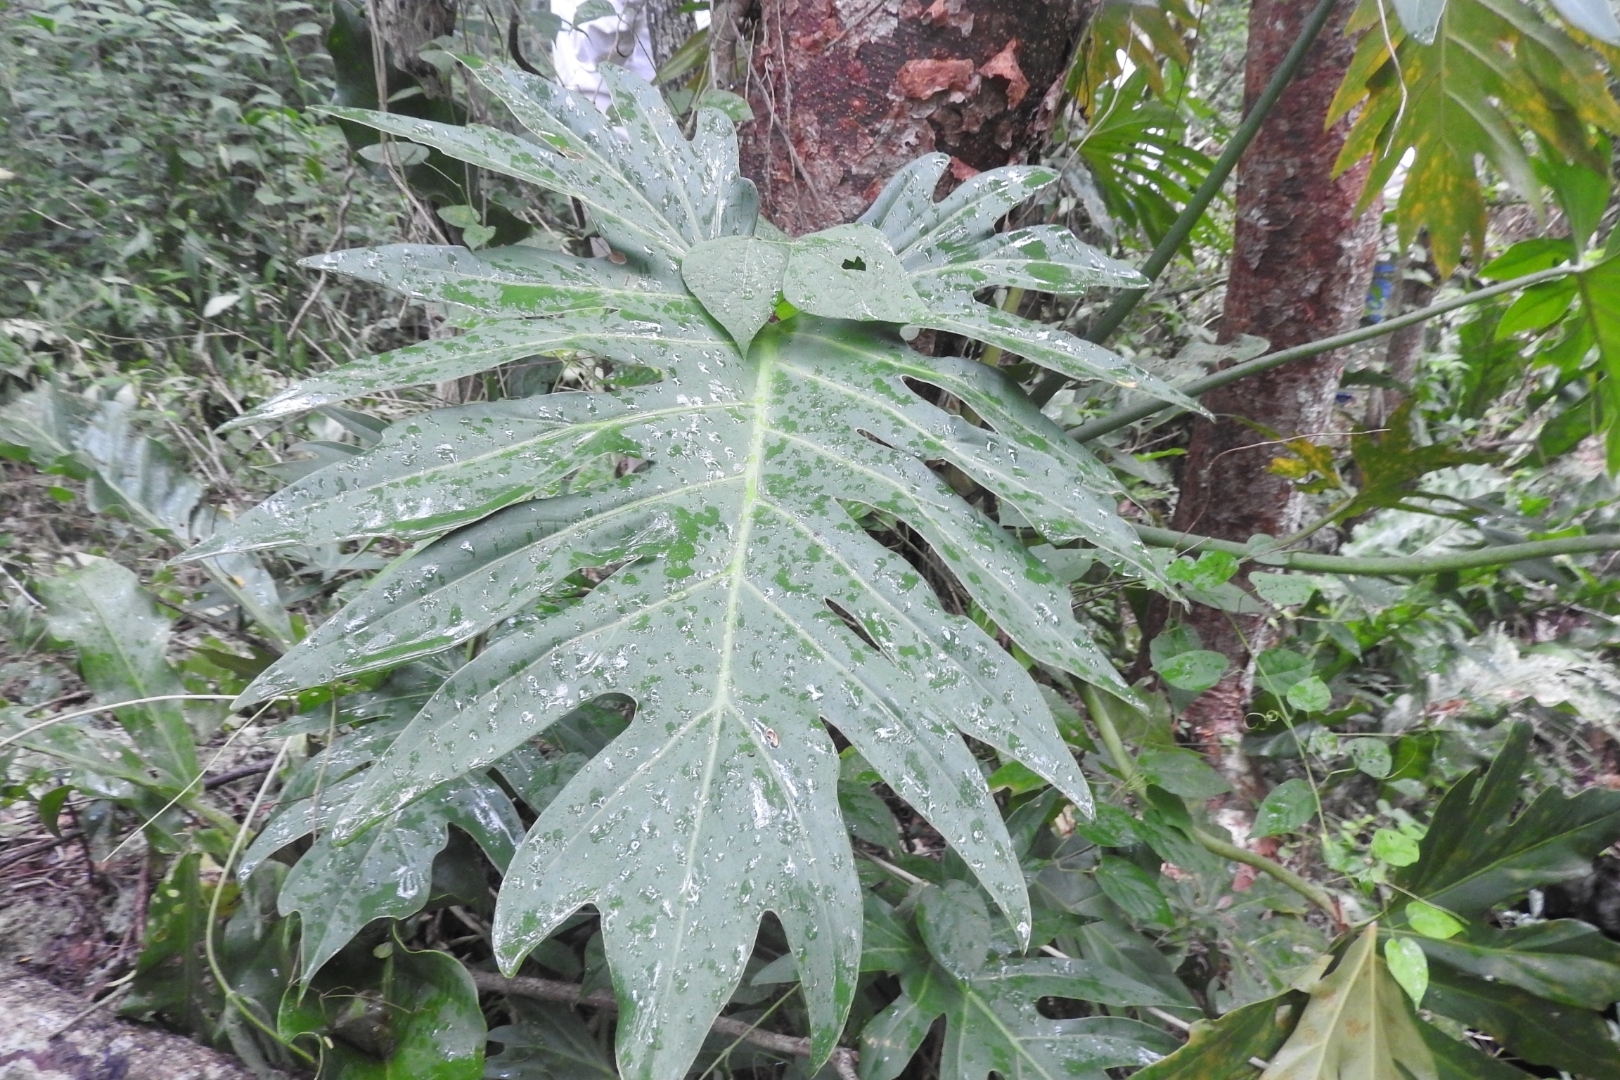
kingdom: Plantae
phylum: Tracheophyta
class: Liliopsida
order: Alismatales
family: Araceae
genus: Philodendron
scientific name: Philodendron radiatum
